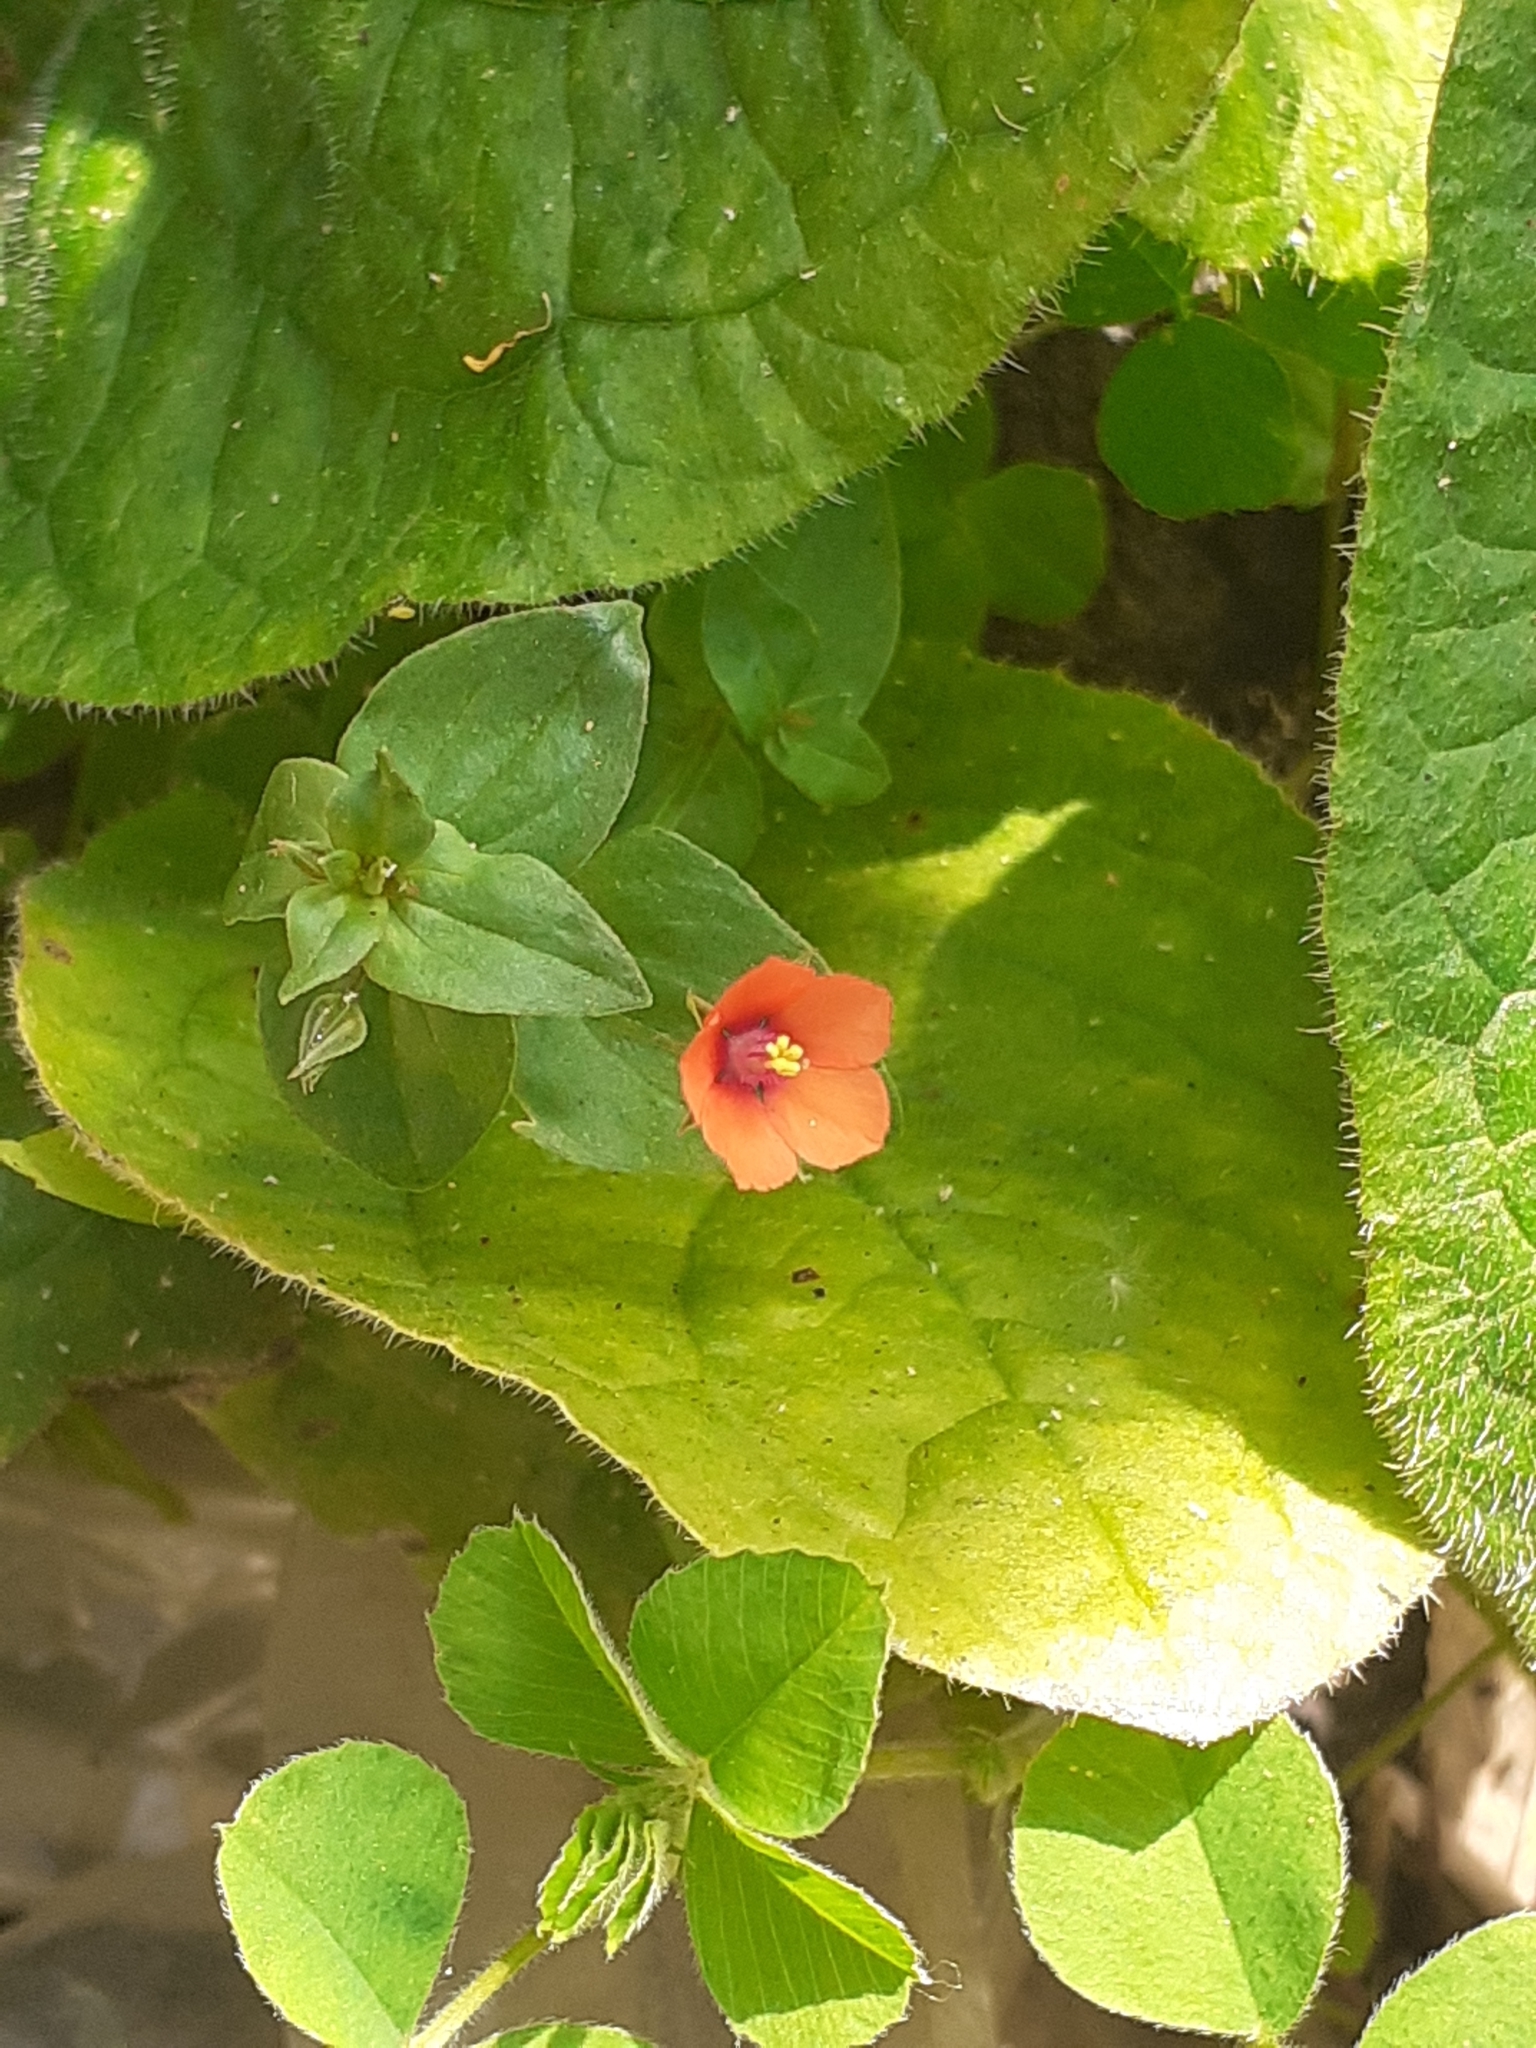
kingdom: Plantae
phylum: Tracheophyta
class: Magnoliopsida
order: Ericales
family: Primulaceae
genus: Lysimachia
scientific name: Lysimachia arvensis
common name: Scarlet pimpernel
